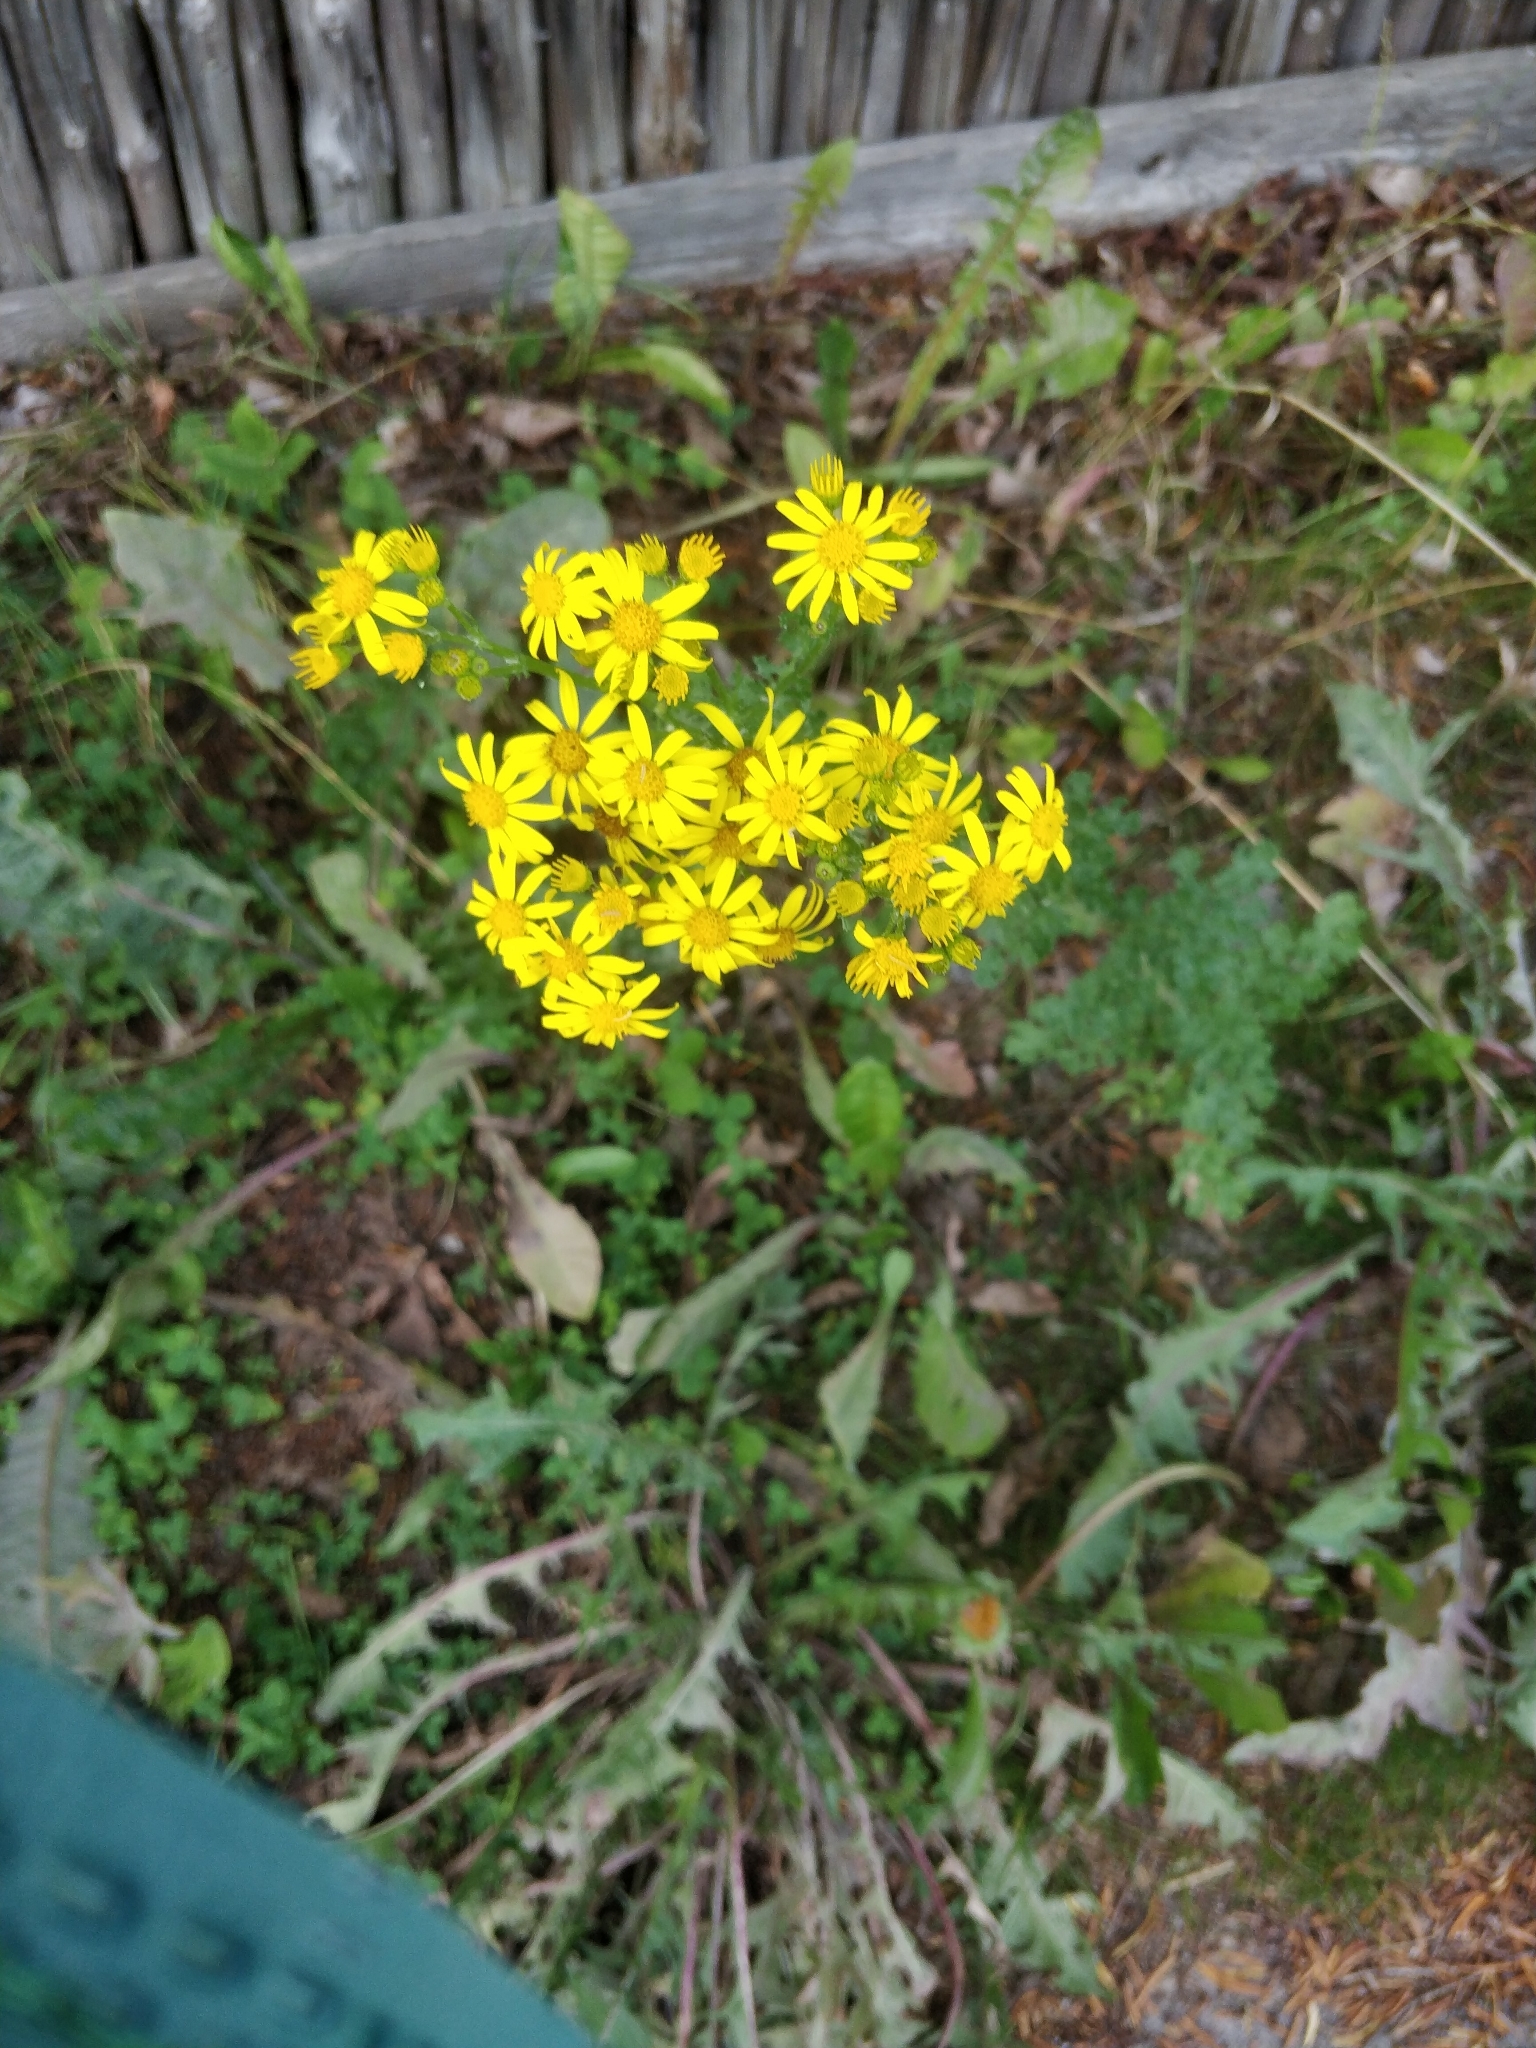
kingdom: Plantae
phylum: Tracheophyta
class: Magnoliopsida
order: Asterales
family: Asteraceae
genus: Jacobaea
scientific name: Jacobaea vulgaris
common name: Stinking willie
